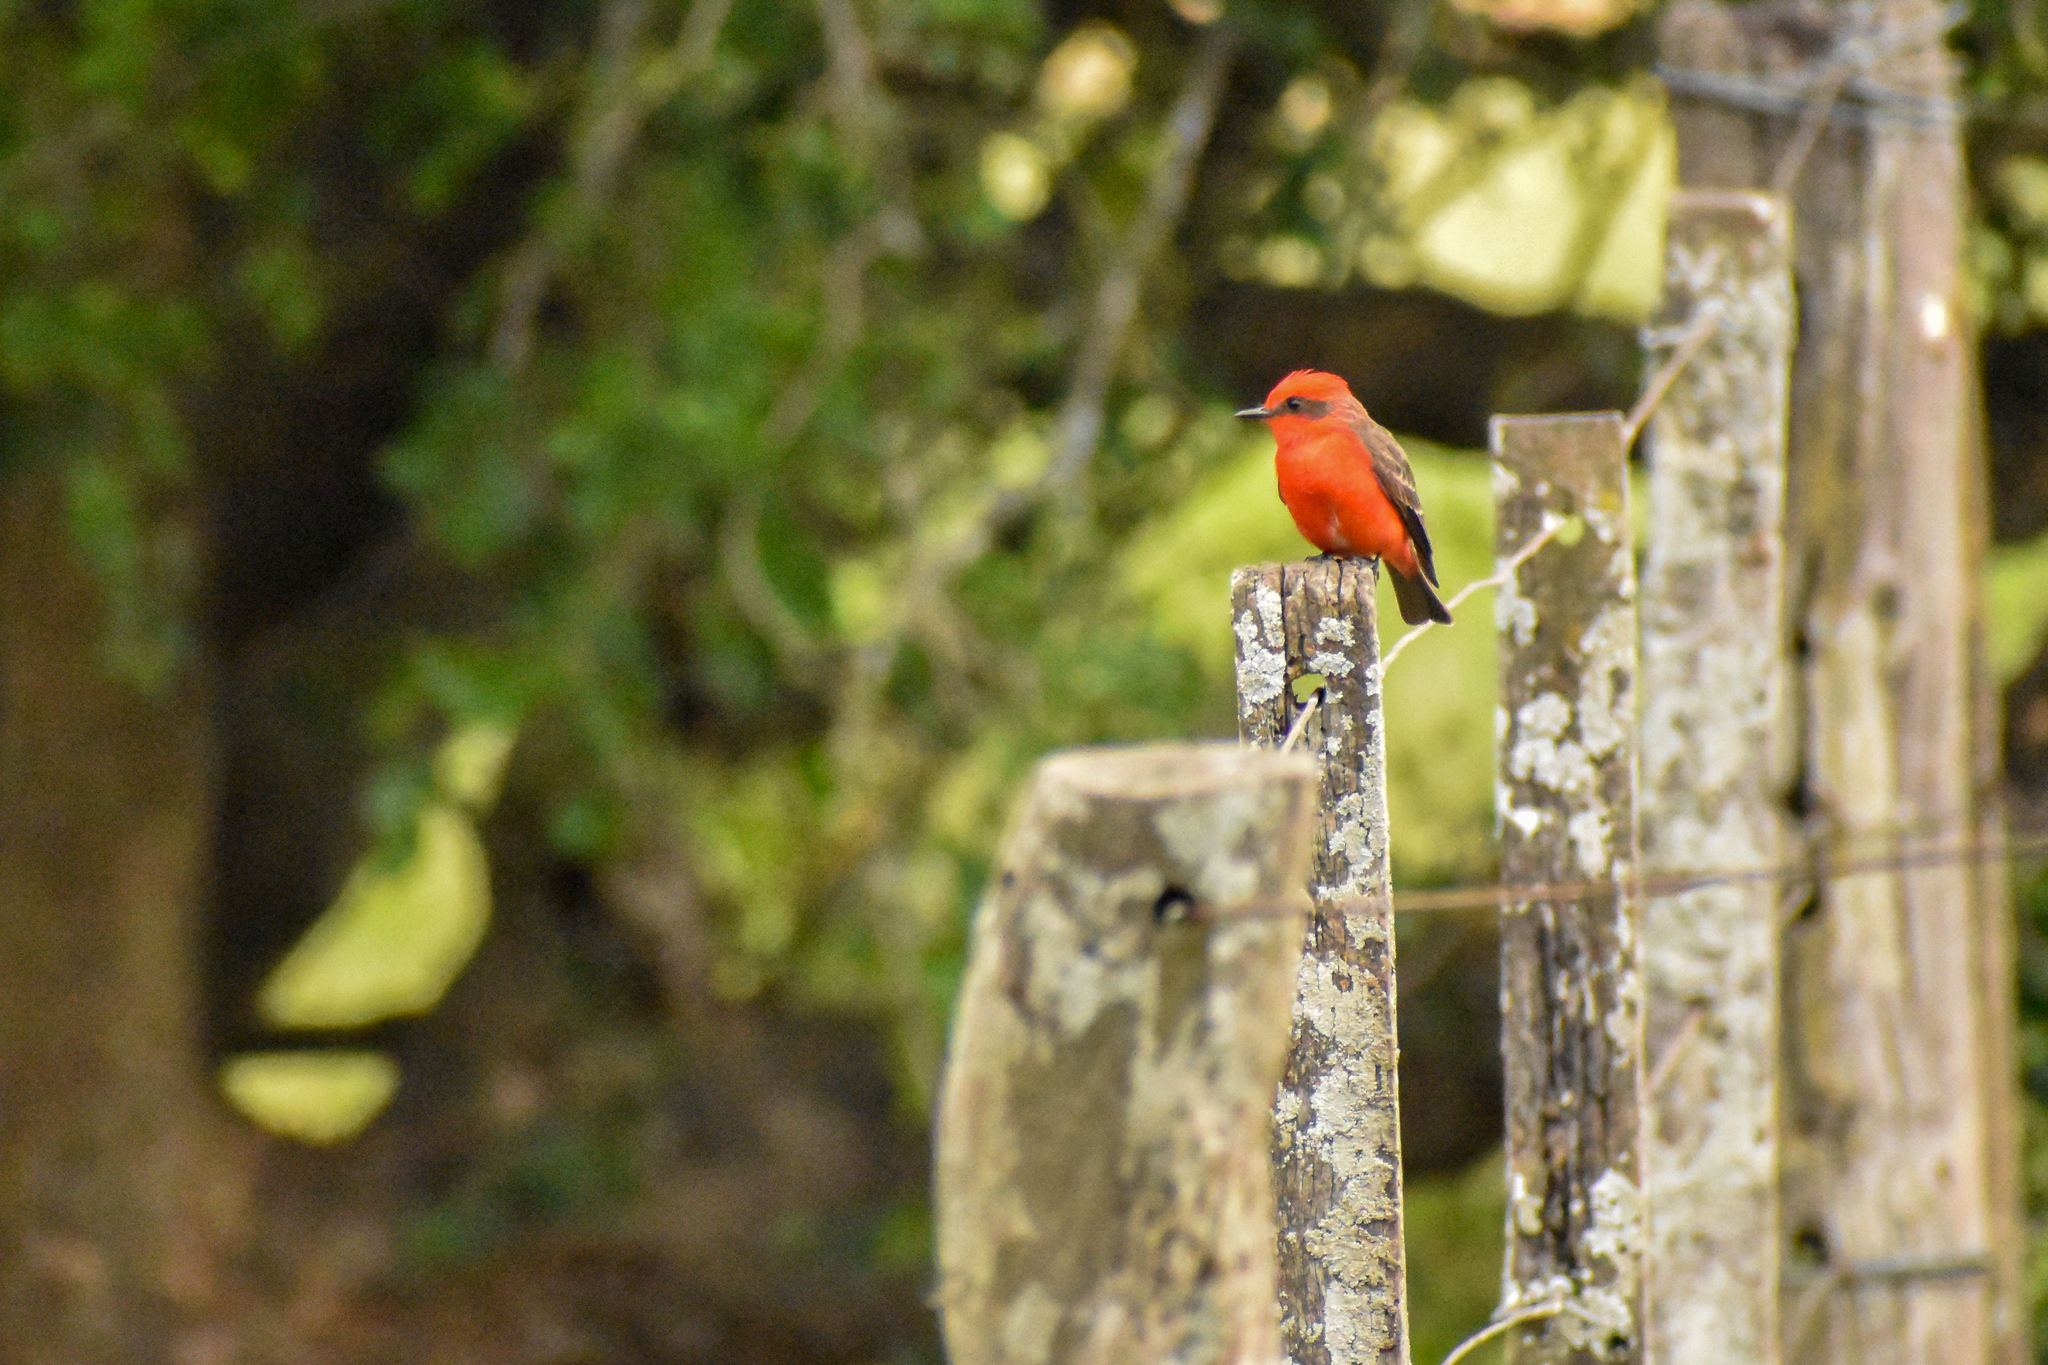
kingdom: Animalia
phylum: Chordata
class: Aves
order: Passeriformes
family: Tyrannidae
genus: Pyrocephalus
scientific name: Pyrocephalus rubinus
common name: Vermilion flycatcher
